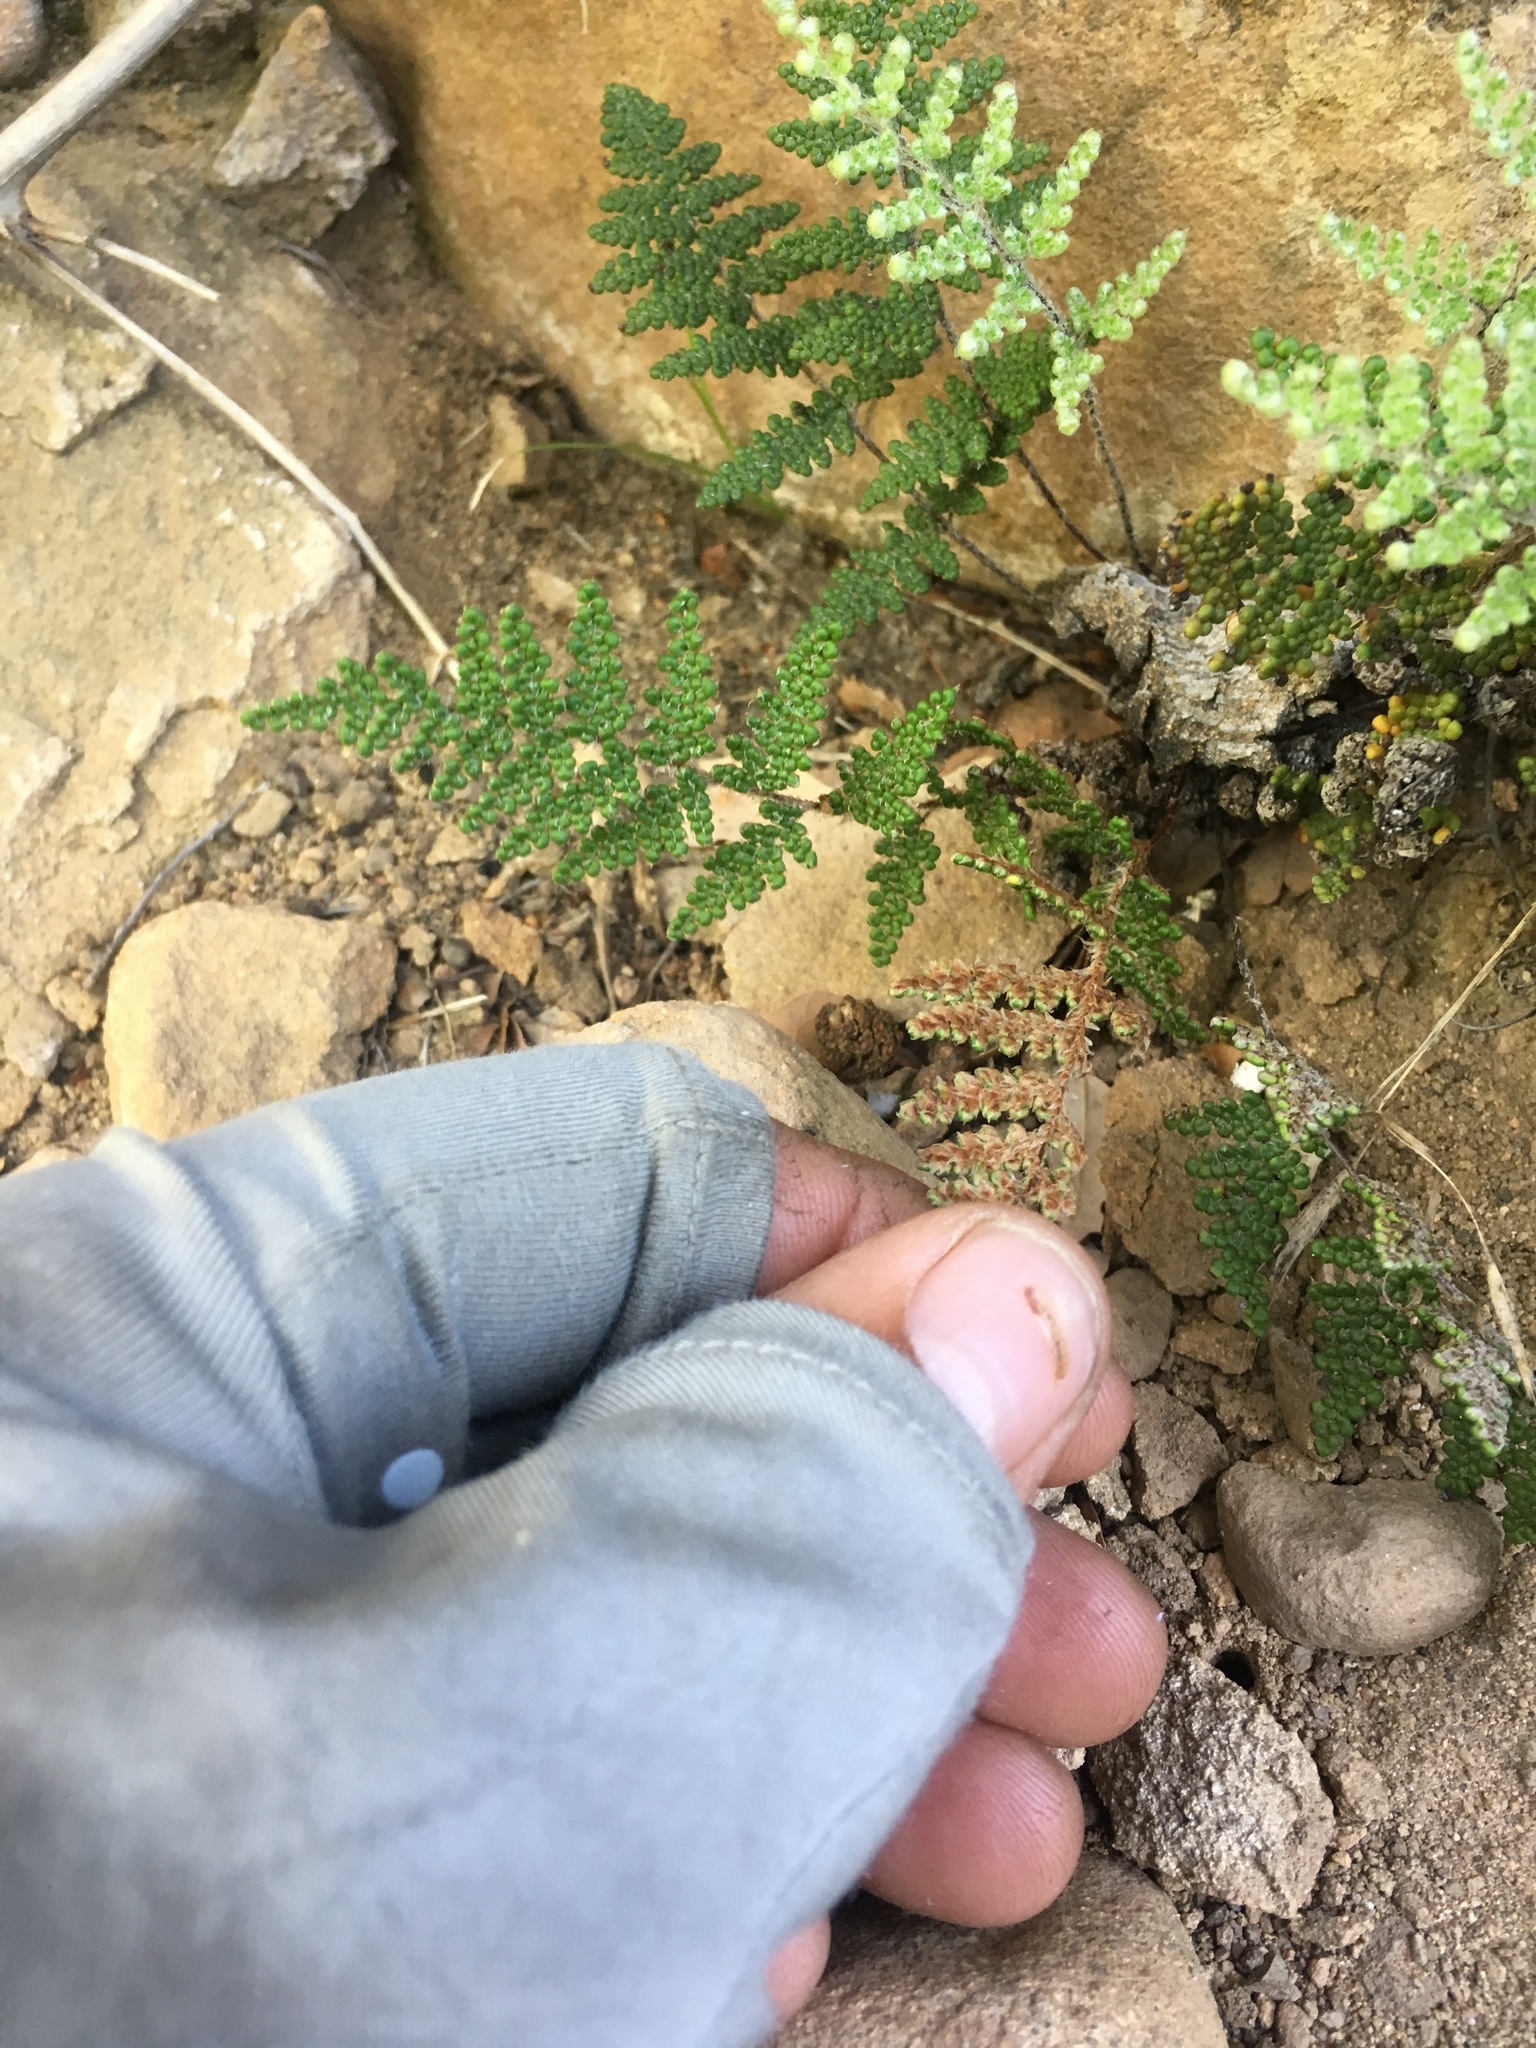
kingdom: Plantae
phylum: Tracheophyta
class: Polypodiopsida
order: Polypodiales
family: Pteridaceae
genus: Myriopteris
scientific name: Myriopteris covillei
